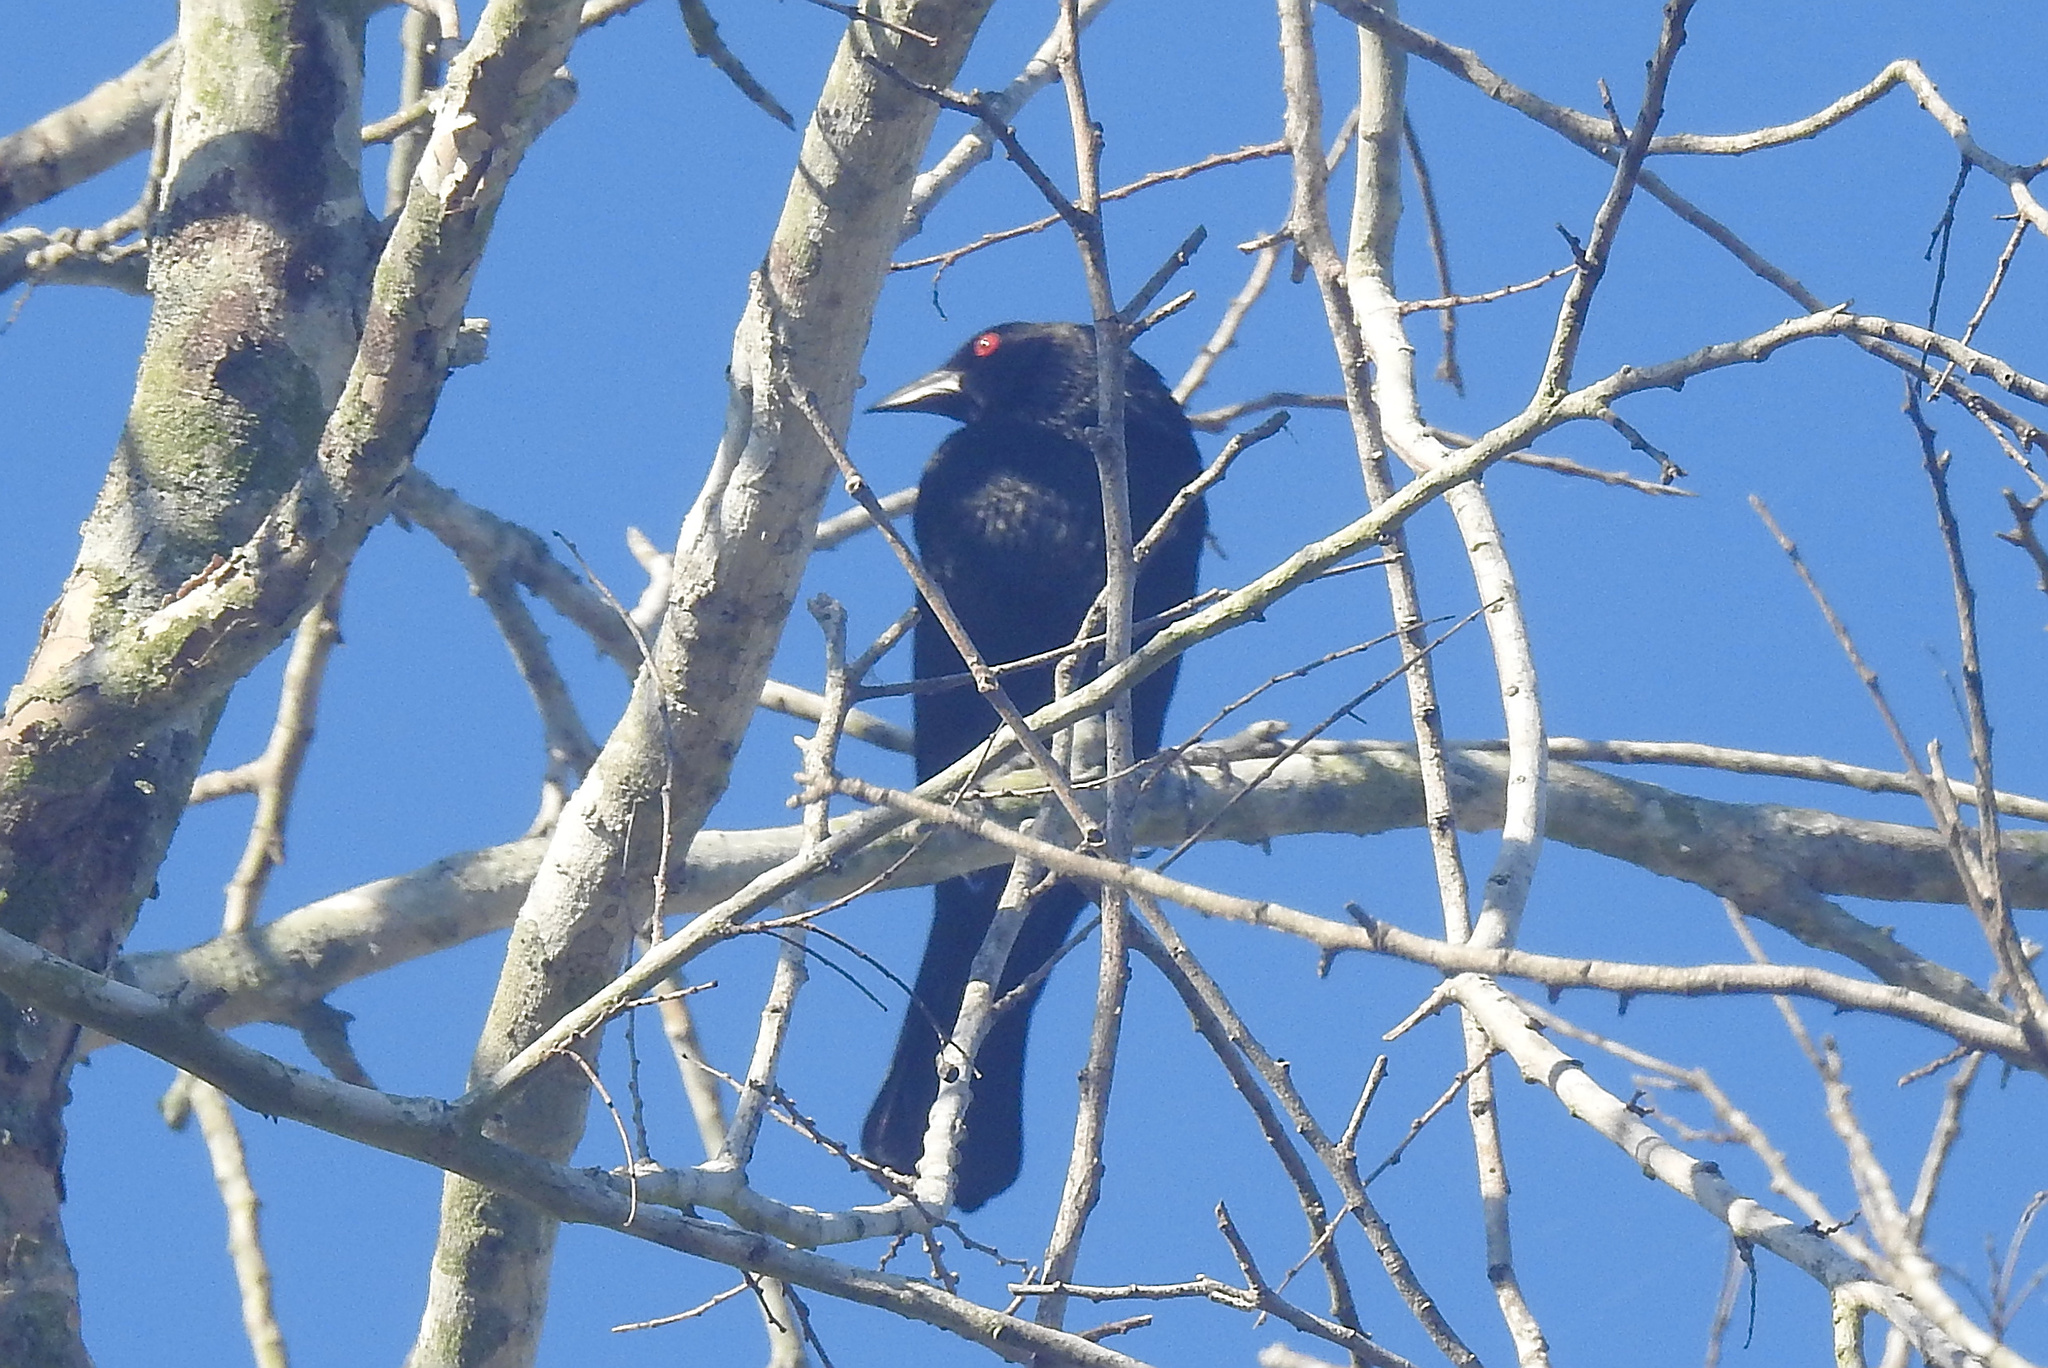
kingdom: Animalia
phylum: Chordata
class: Aves
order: Passeriformes
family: Icteridae
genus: Molothrus
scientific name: Molothrus aeneus
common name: Bronzed cowbird
